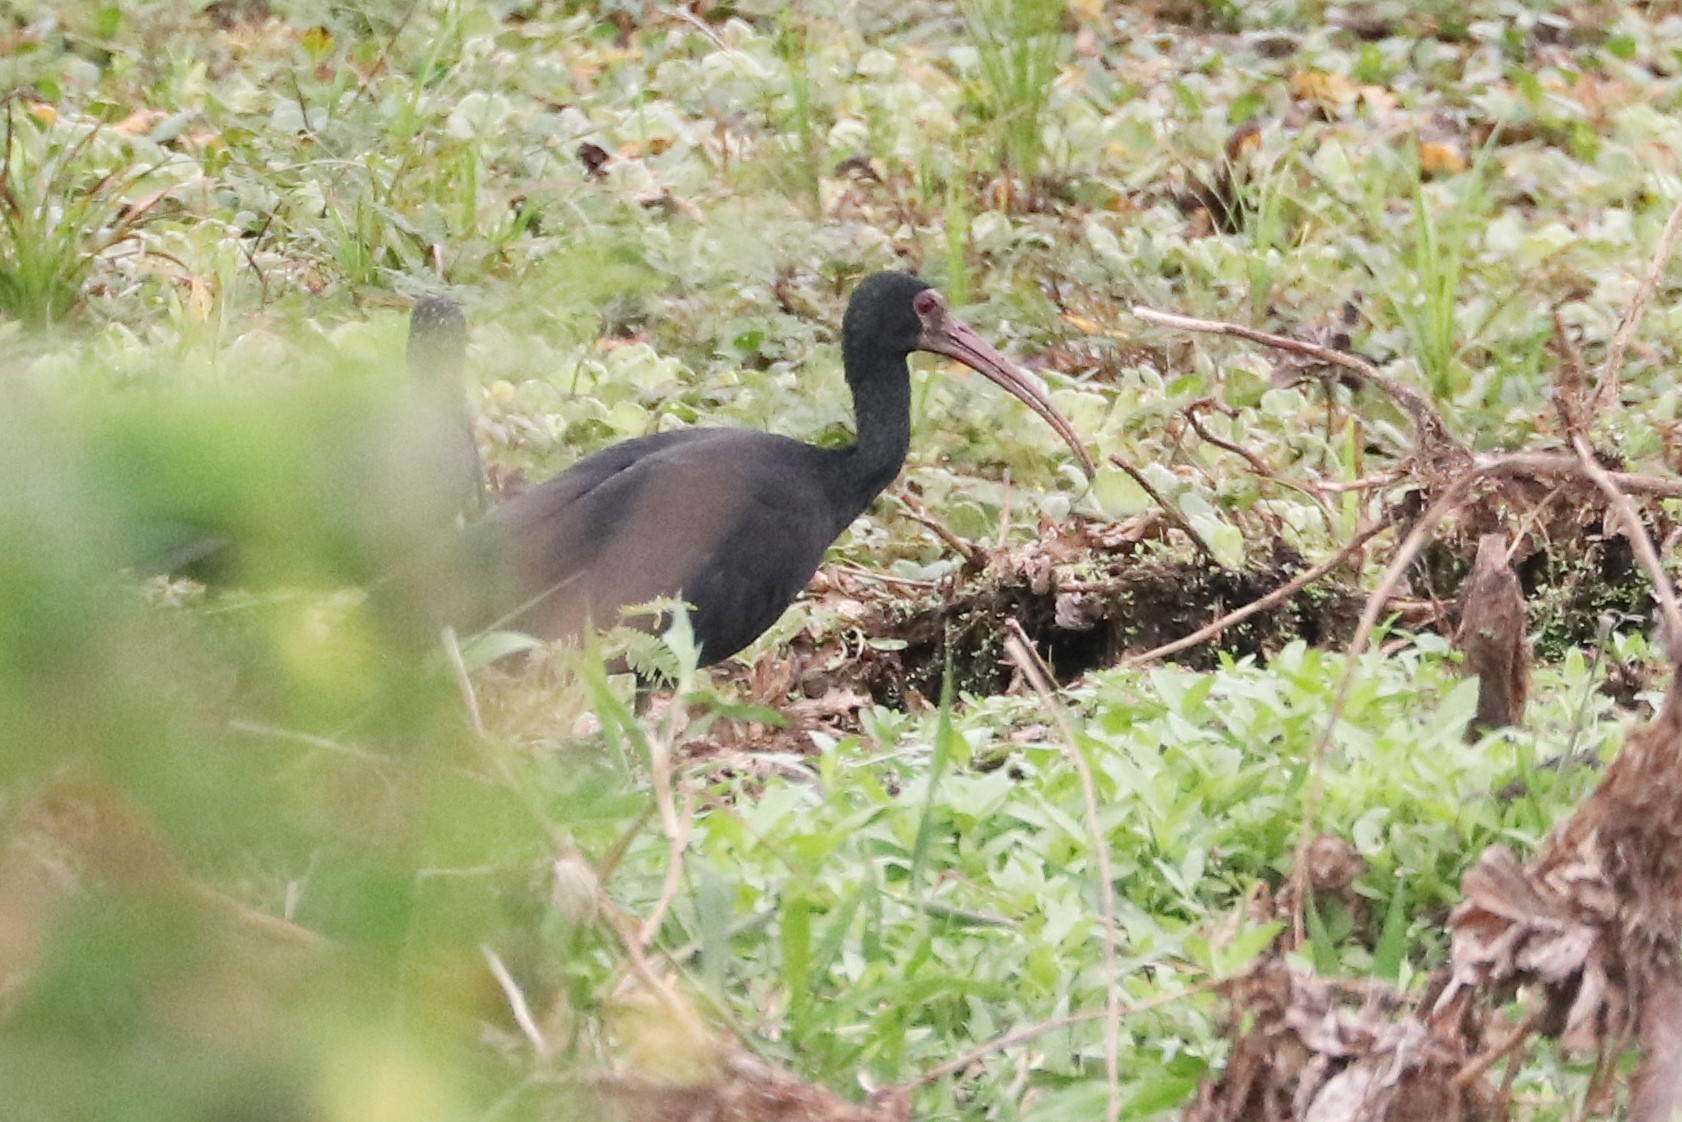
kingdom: Animalia
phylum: Chordata
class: Aves
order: Pelecaniformes
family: Threskiornithidae
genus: Phimosus
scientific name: Phimosus infuscatus
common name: Bare-faced ibis
